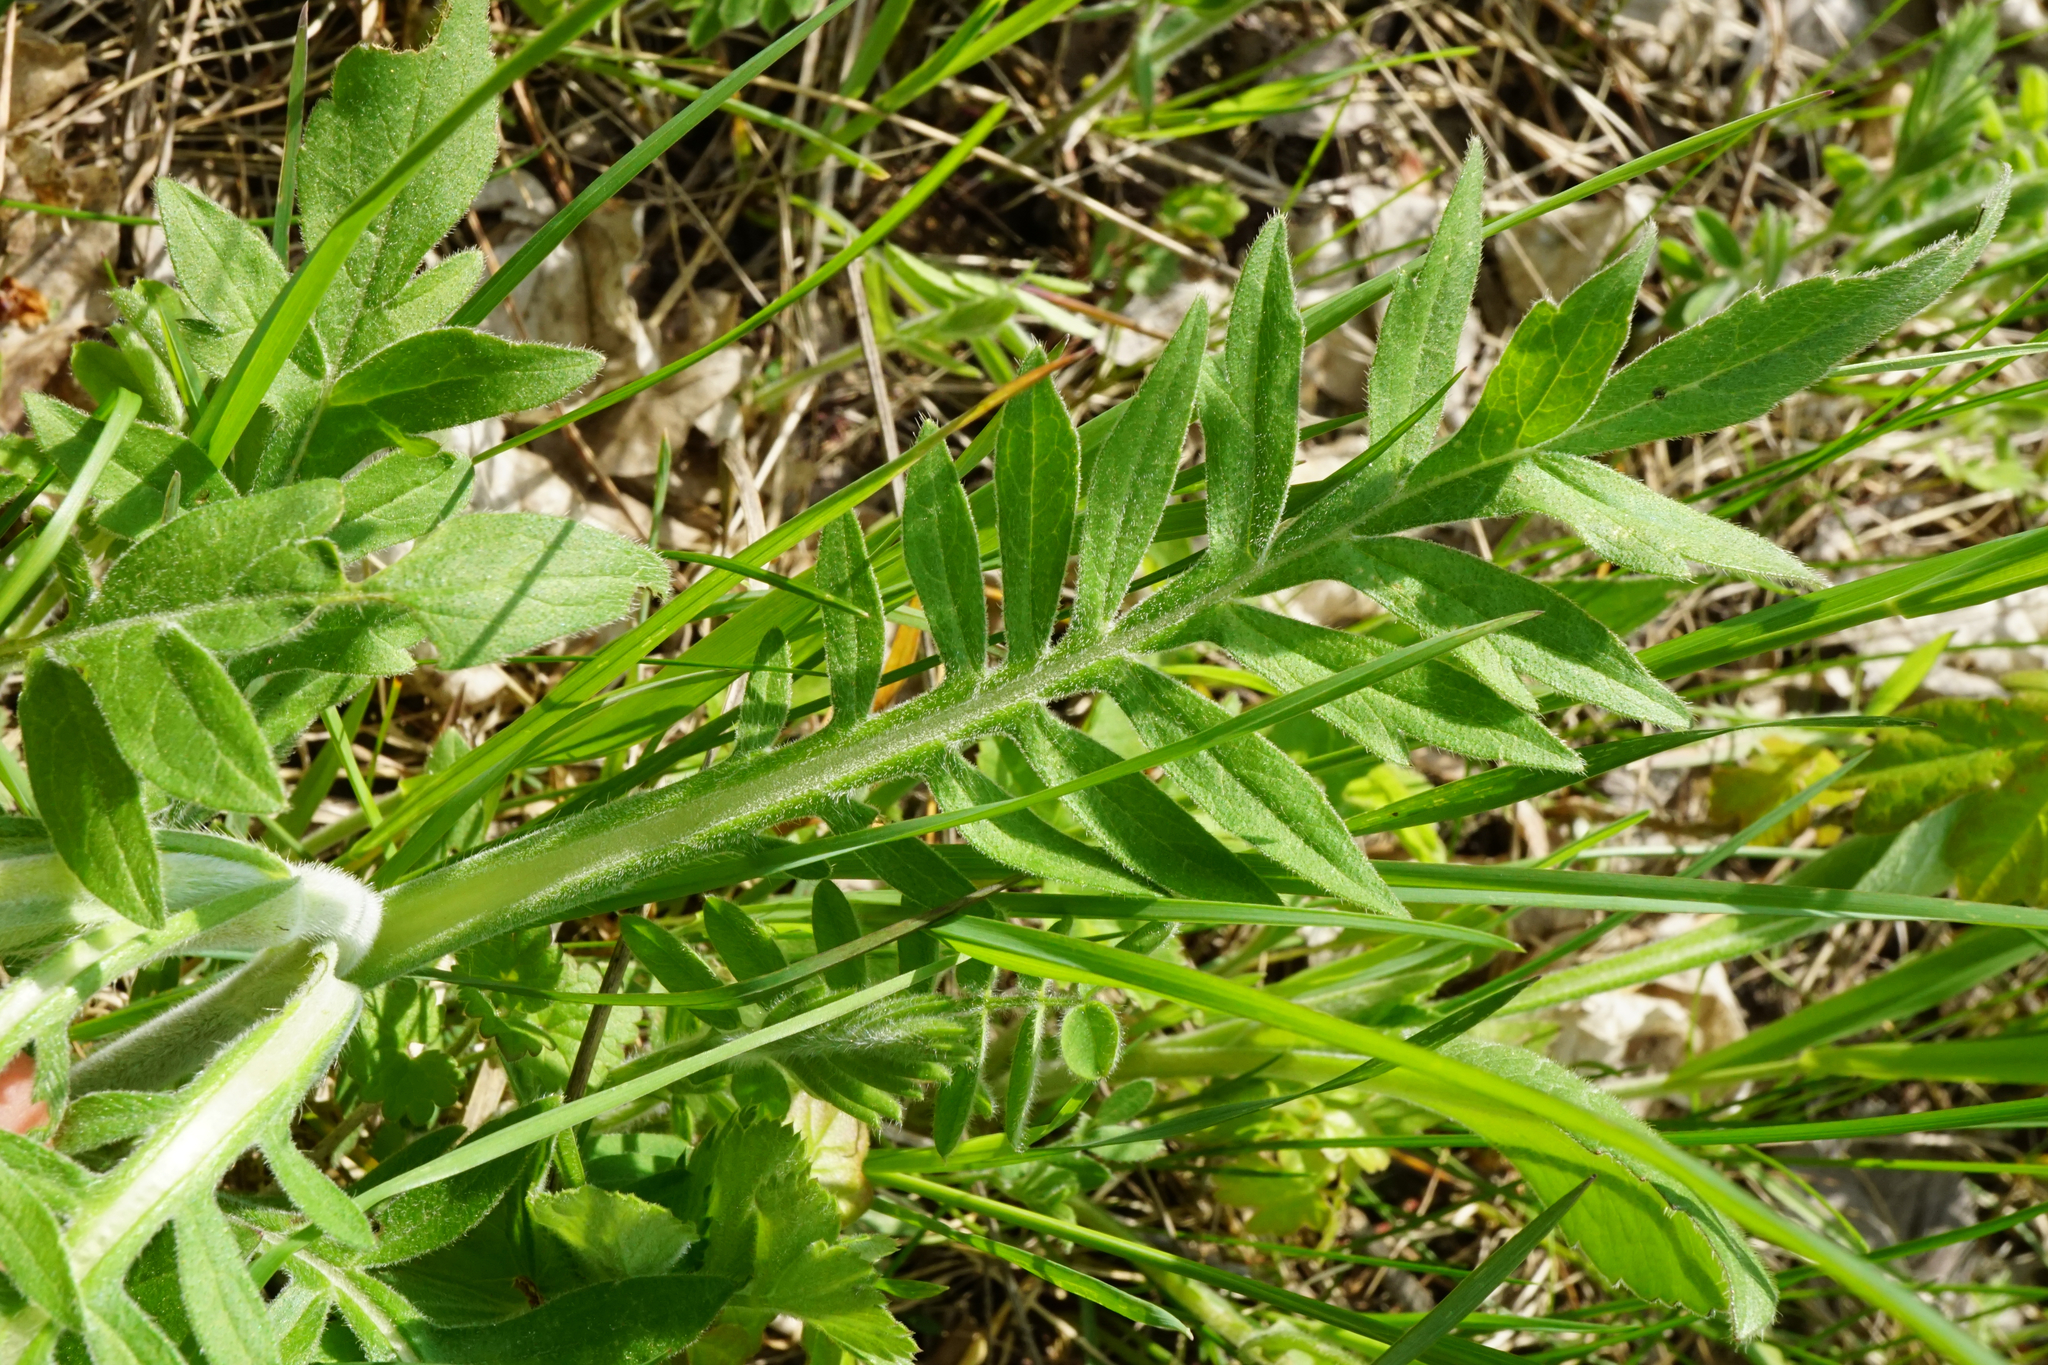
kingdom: Plantae
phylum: Tracheophyta
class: Magnoliopsida
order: Dipsacales
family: Caprifoliaceae
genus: Knautia
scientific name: Knautia arvensis
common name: Field scabiosa
